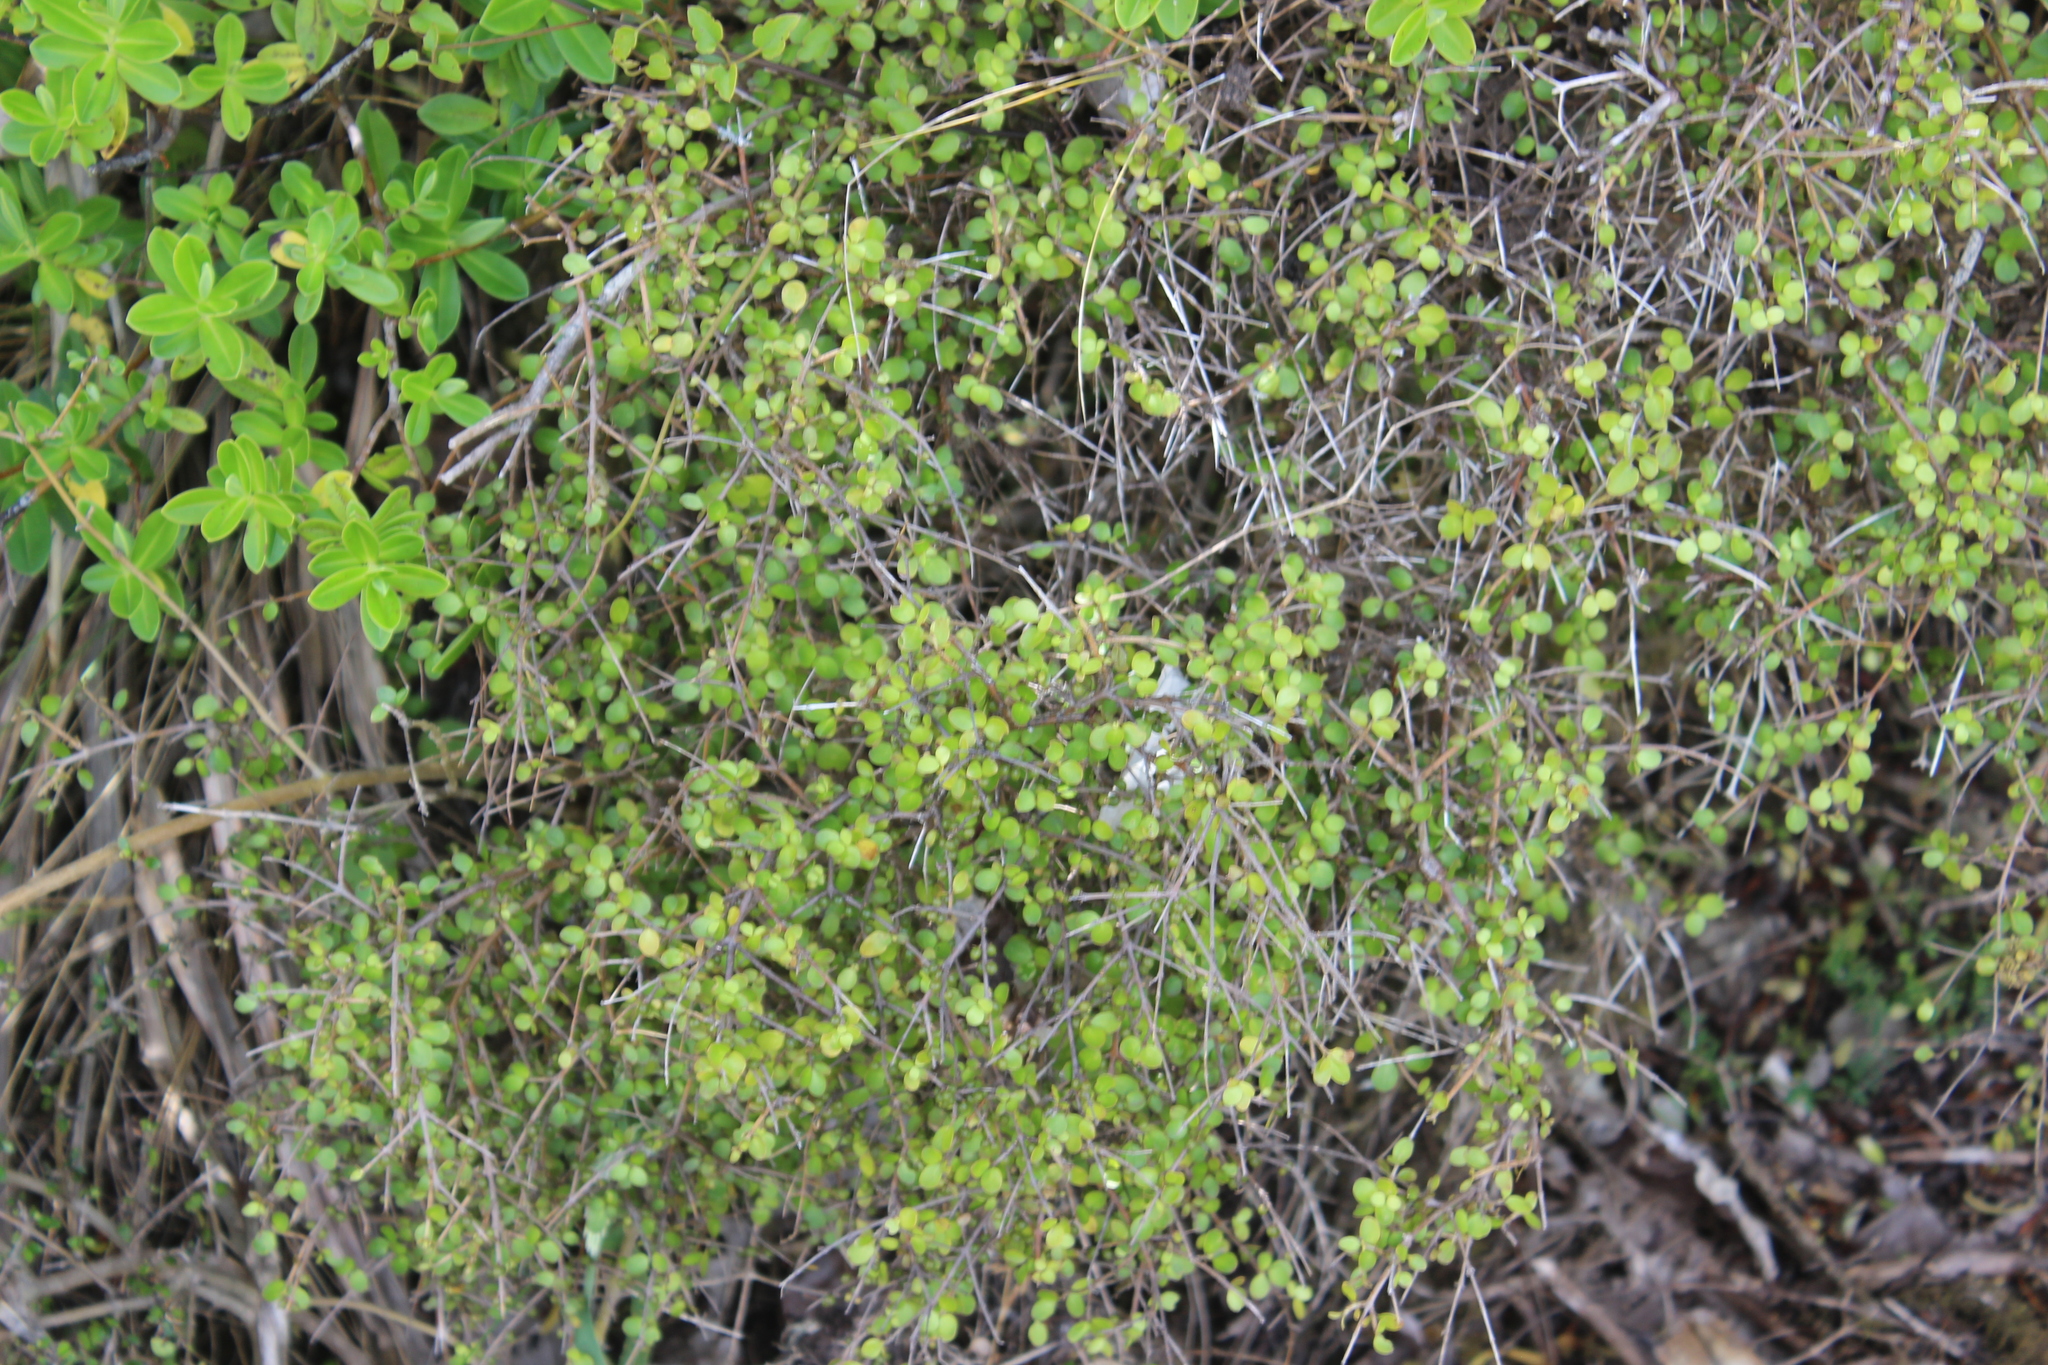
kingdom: Plantae
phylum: Tracheophyta
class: Magnoliopsida
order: Gentianales
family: Rubiaceae
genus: Coprosma
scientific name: Coprosma rhamnoides
